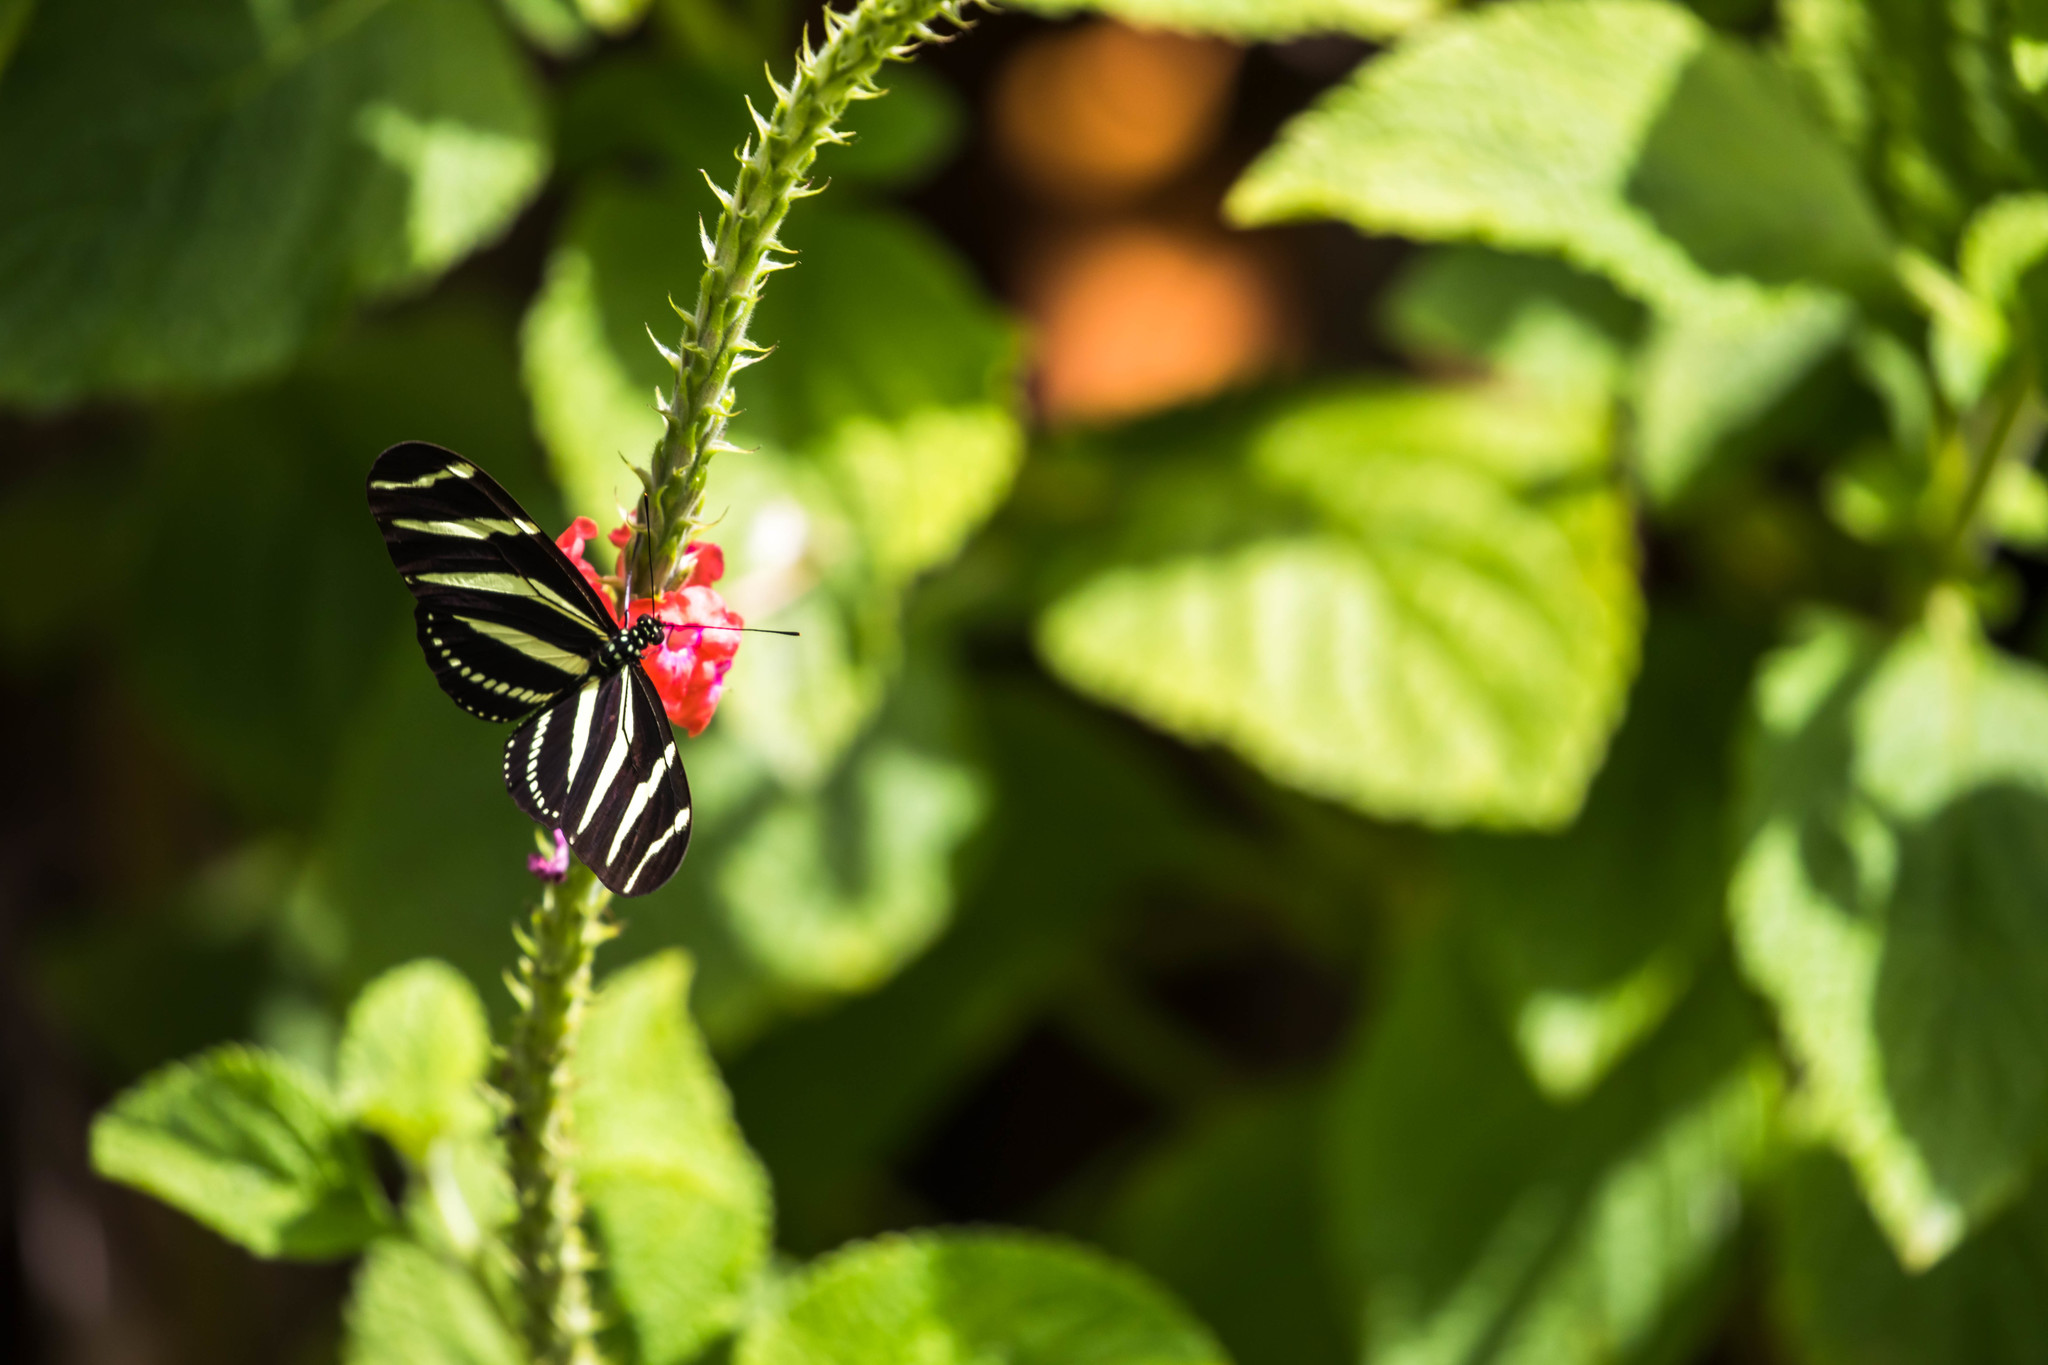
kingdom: Animalia
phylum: Arthropoda
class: Insecta
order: Lepidoptera
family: Nymphalidae
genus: Heliconius
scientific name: Heliconius charithonia
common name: Zebra long wing
